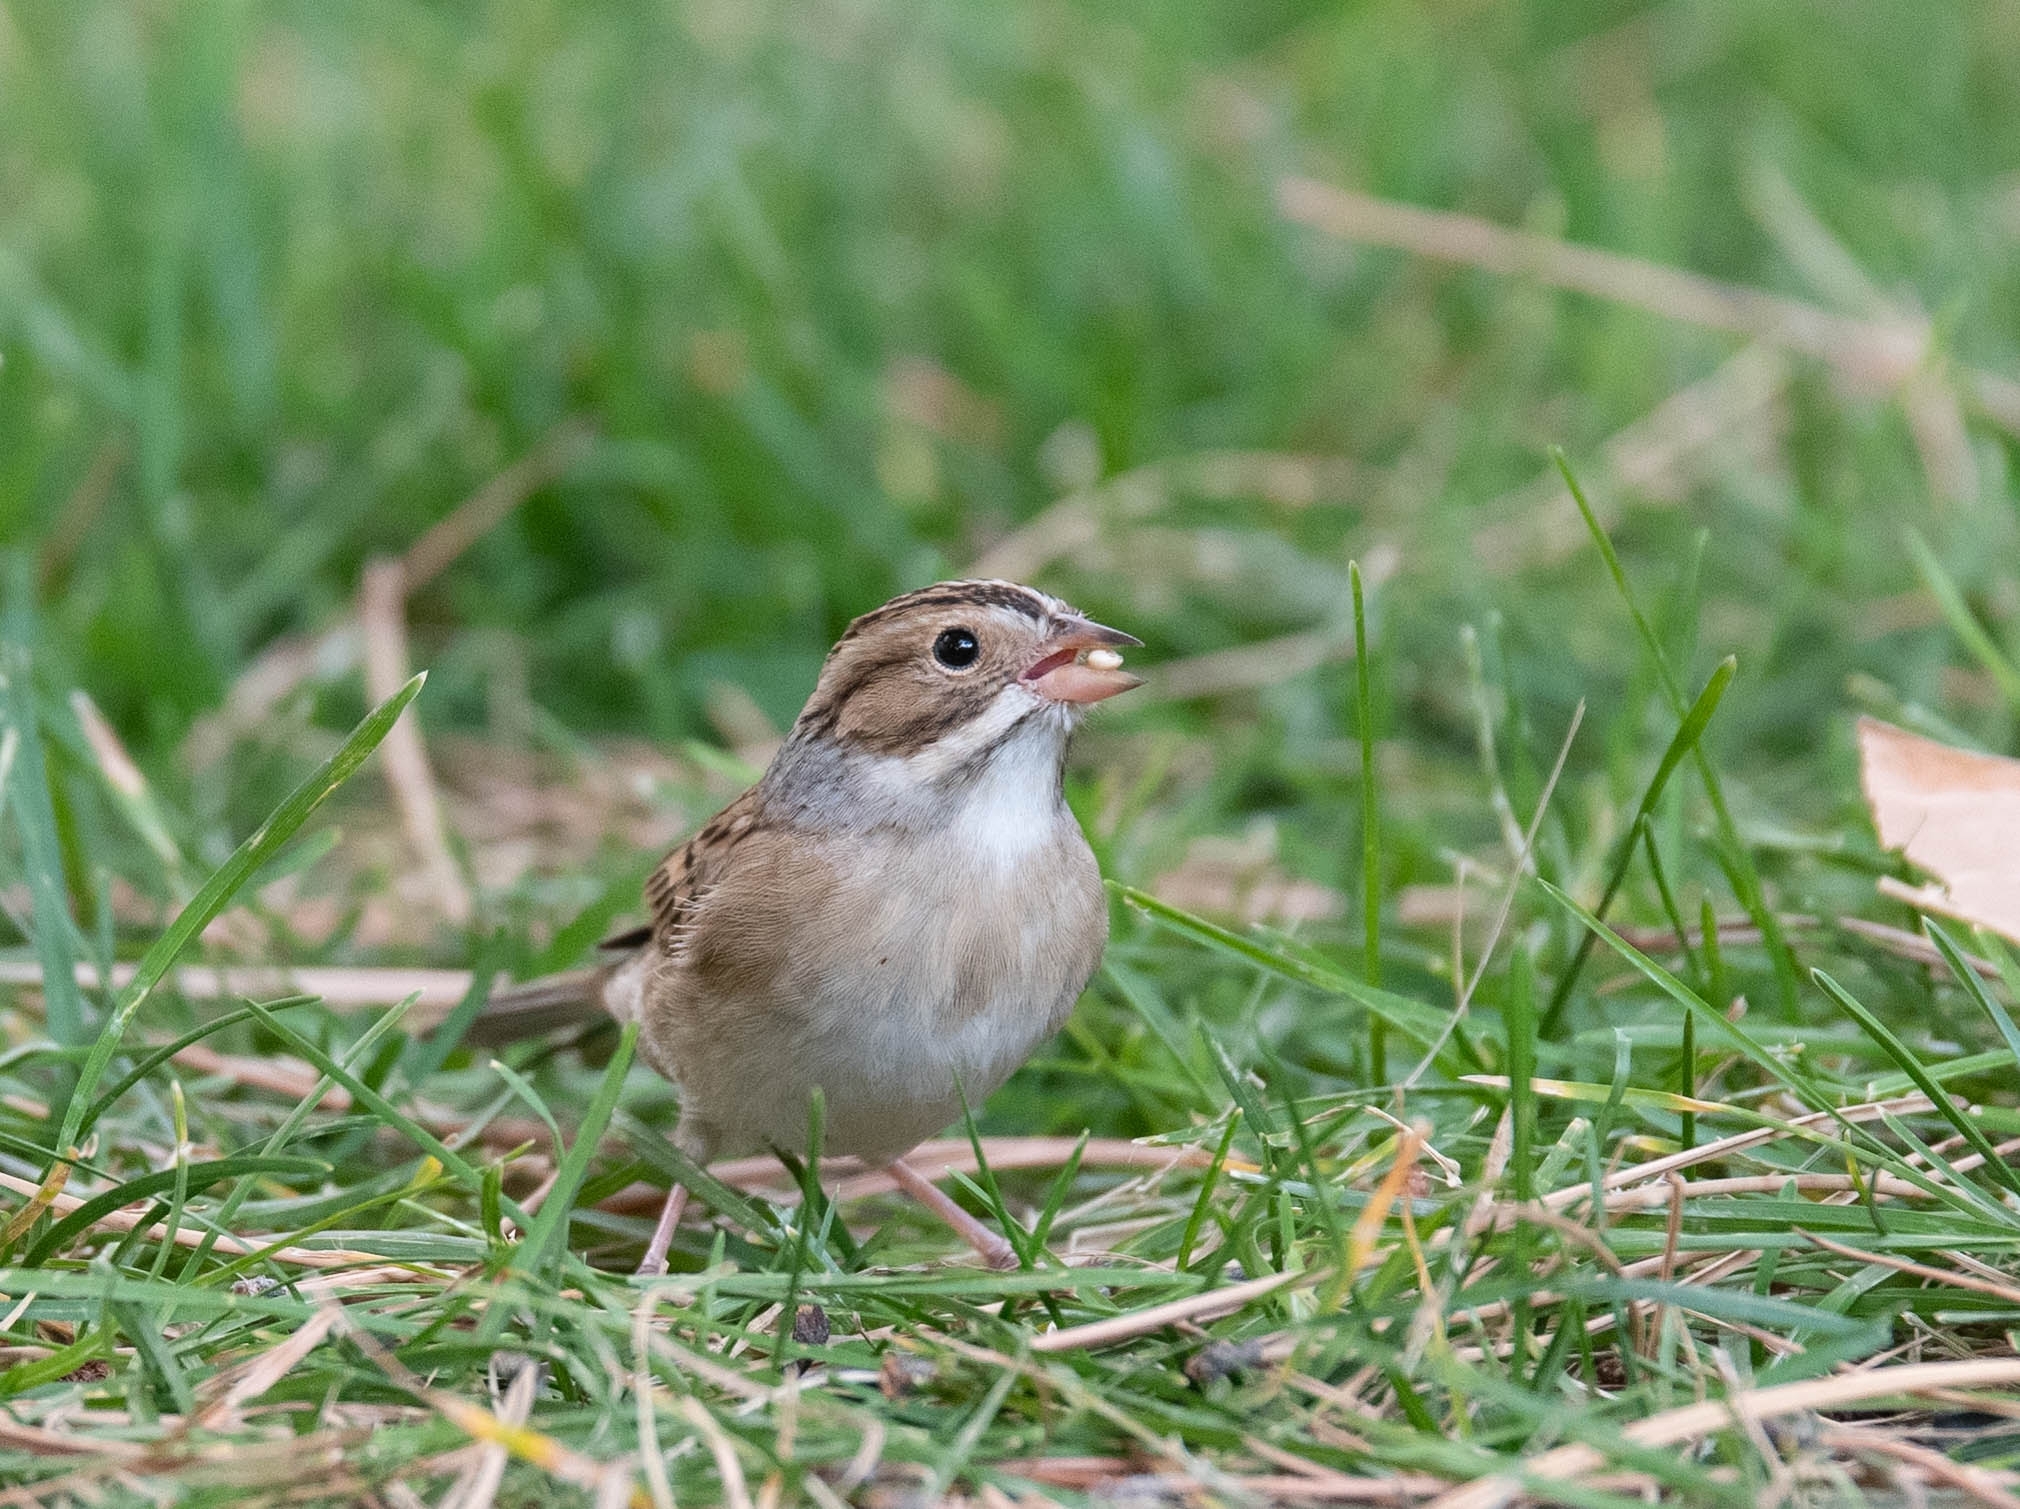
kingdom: Animalia
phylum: Chordata
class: Aves
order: Passeriformes
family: Passerellidae
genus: Spizella
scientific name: Spizella pallida
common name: Clay-colored sparrow
